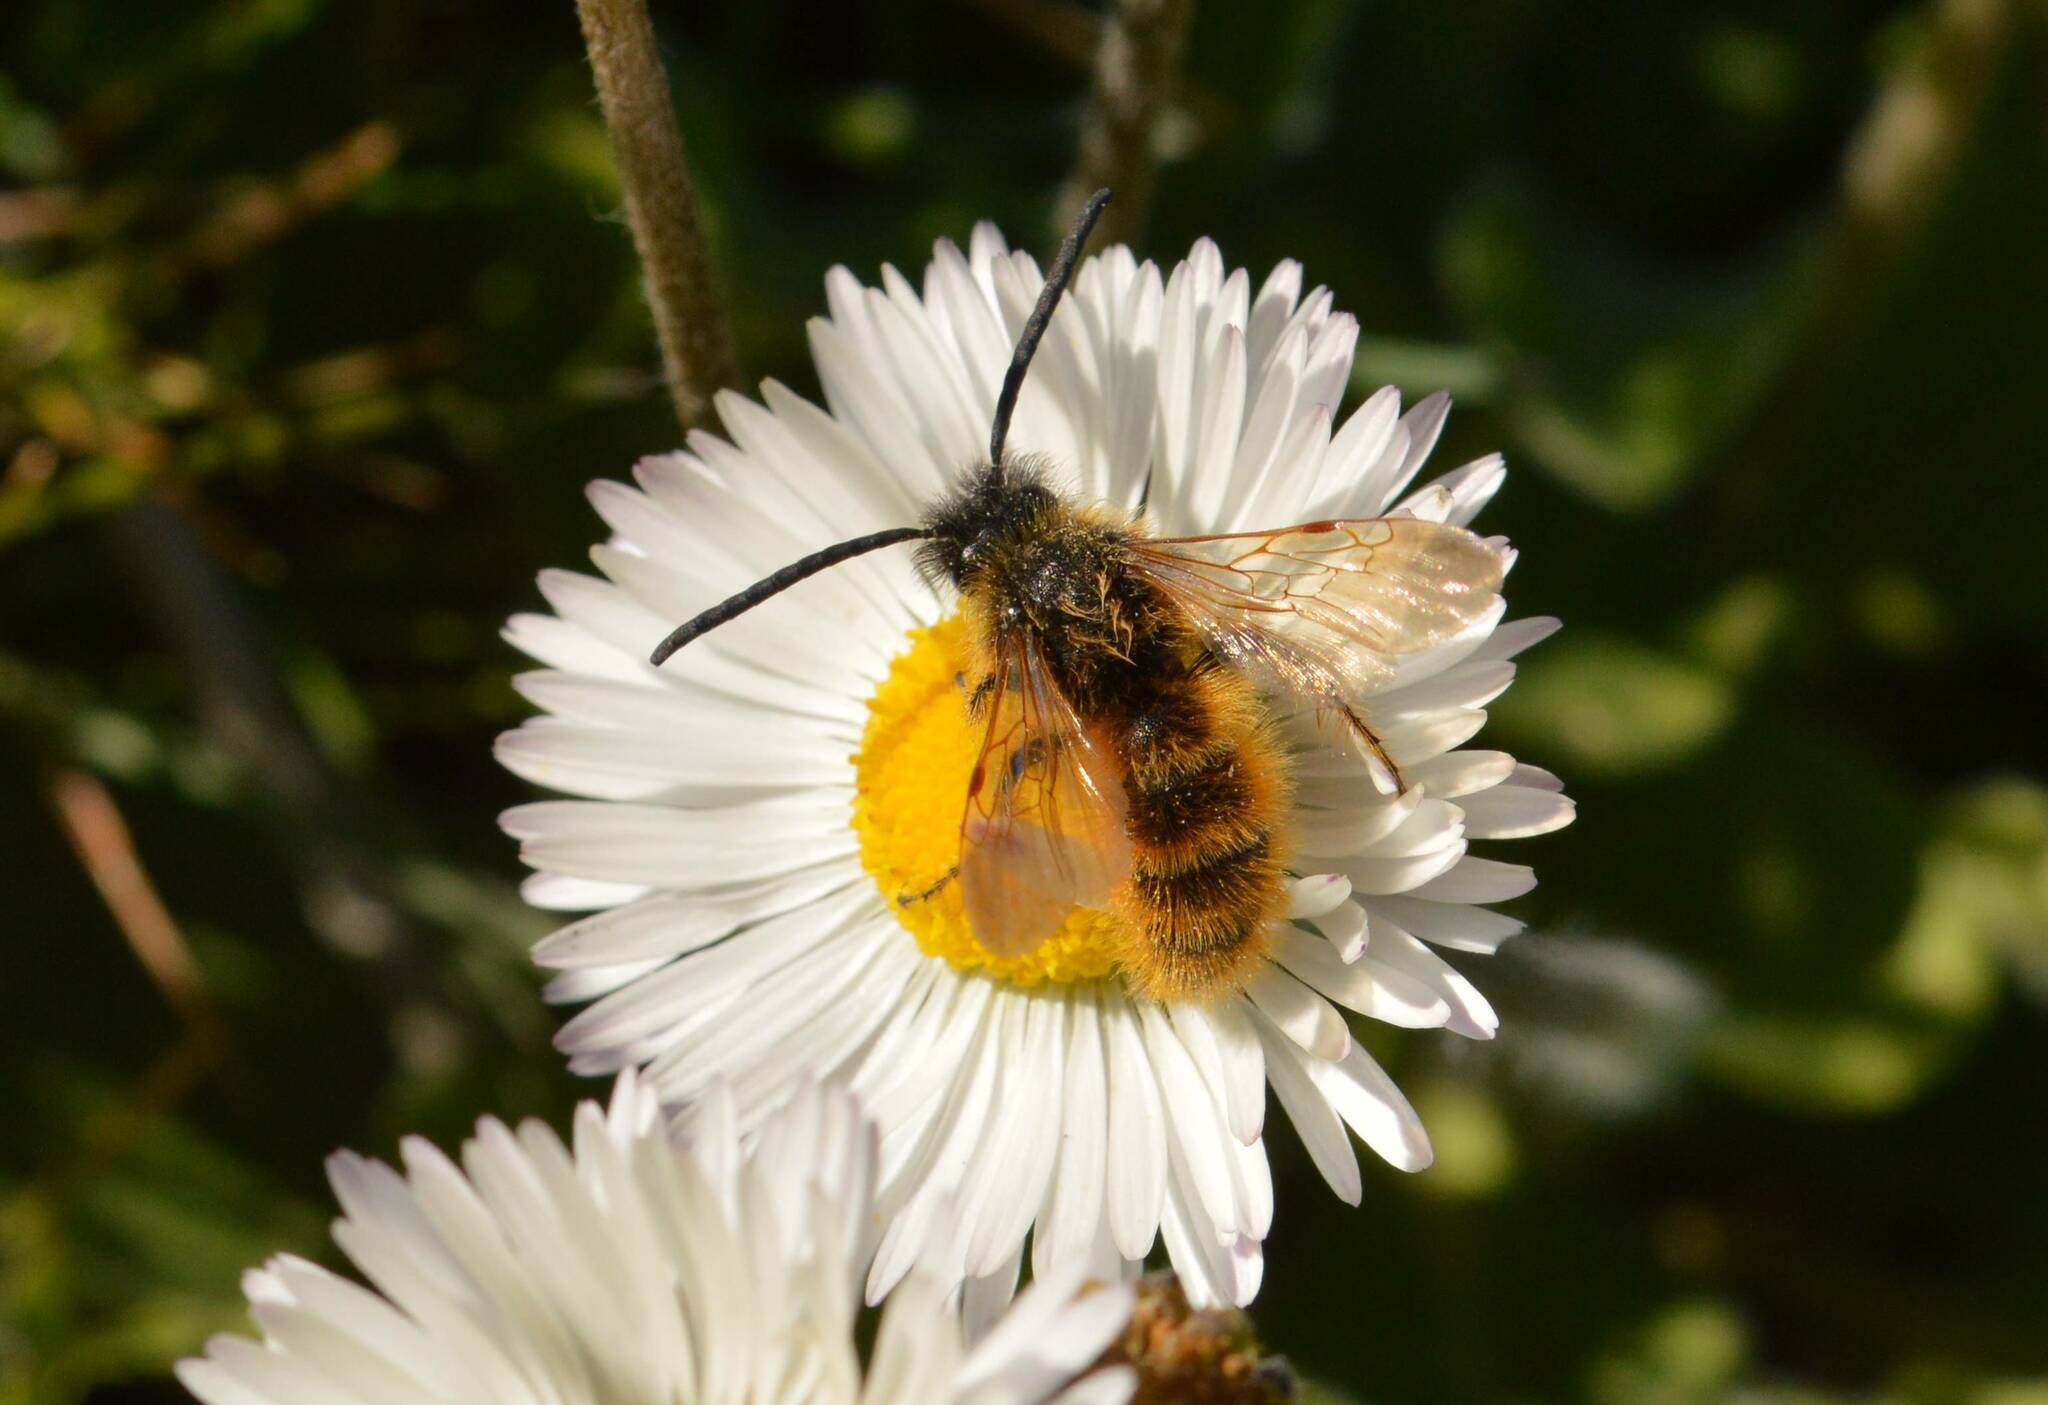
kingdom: Animalia
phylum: Arthropoda
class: Insecta
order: Hymenoptera
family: Scoliidae
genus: Dasyscolia
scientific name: Dasyscolia ciliata
